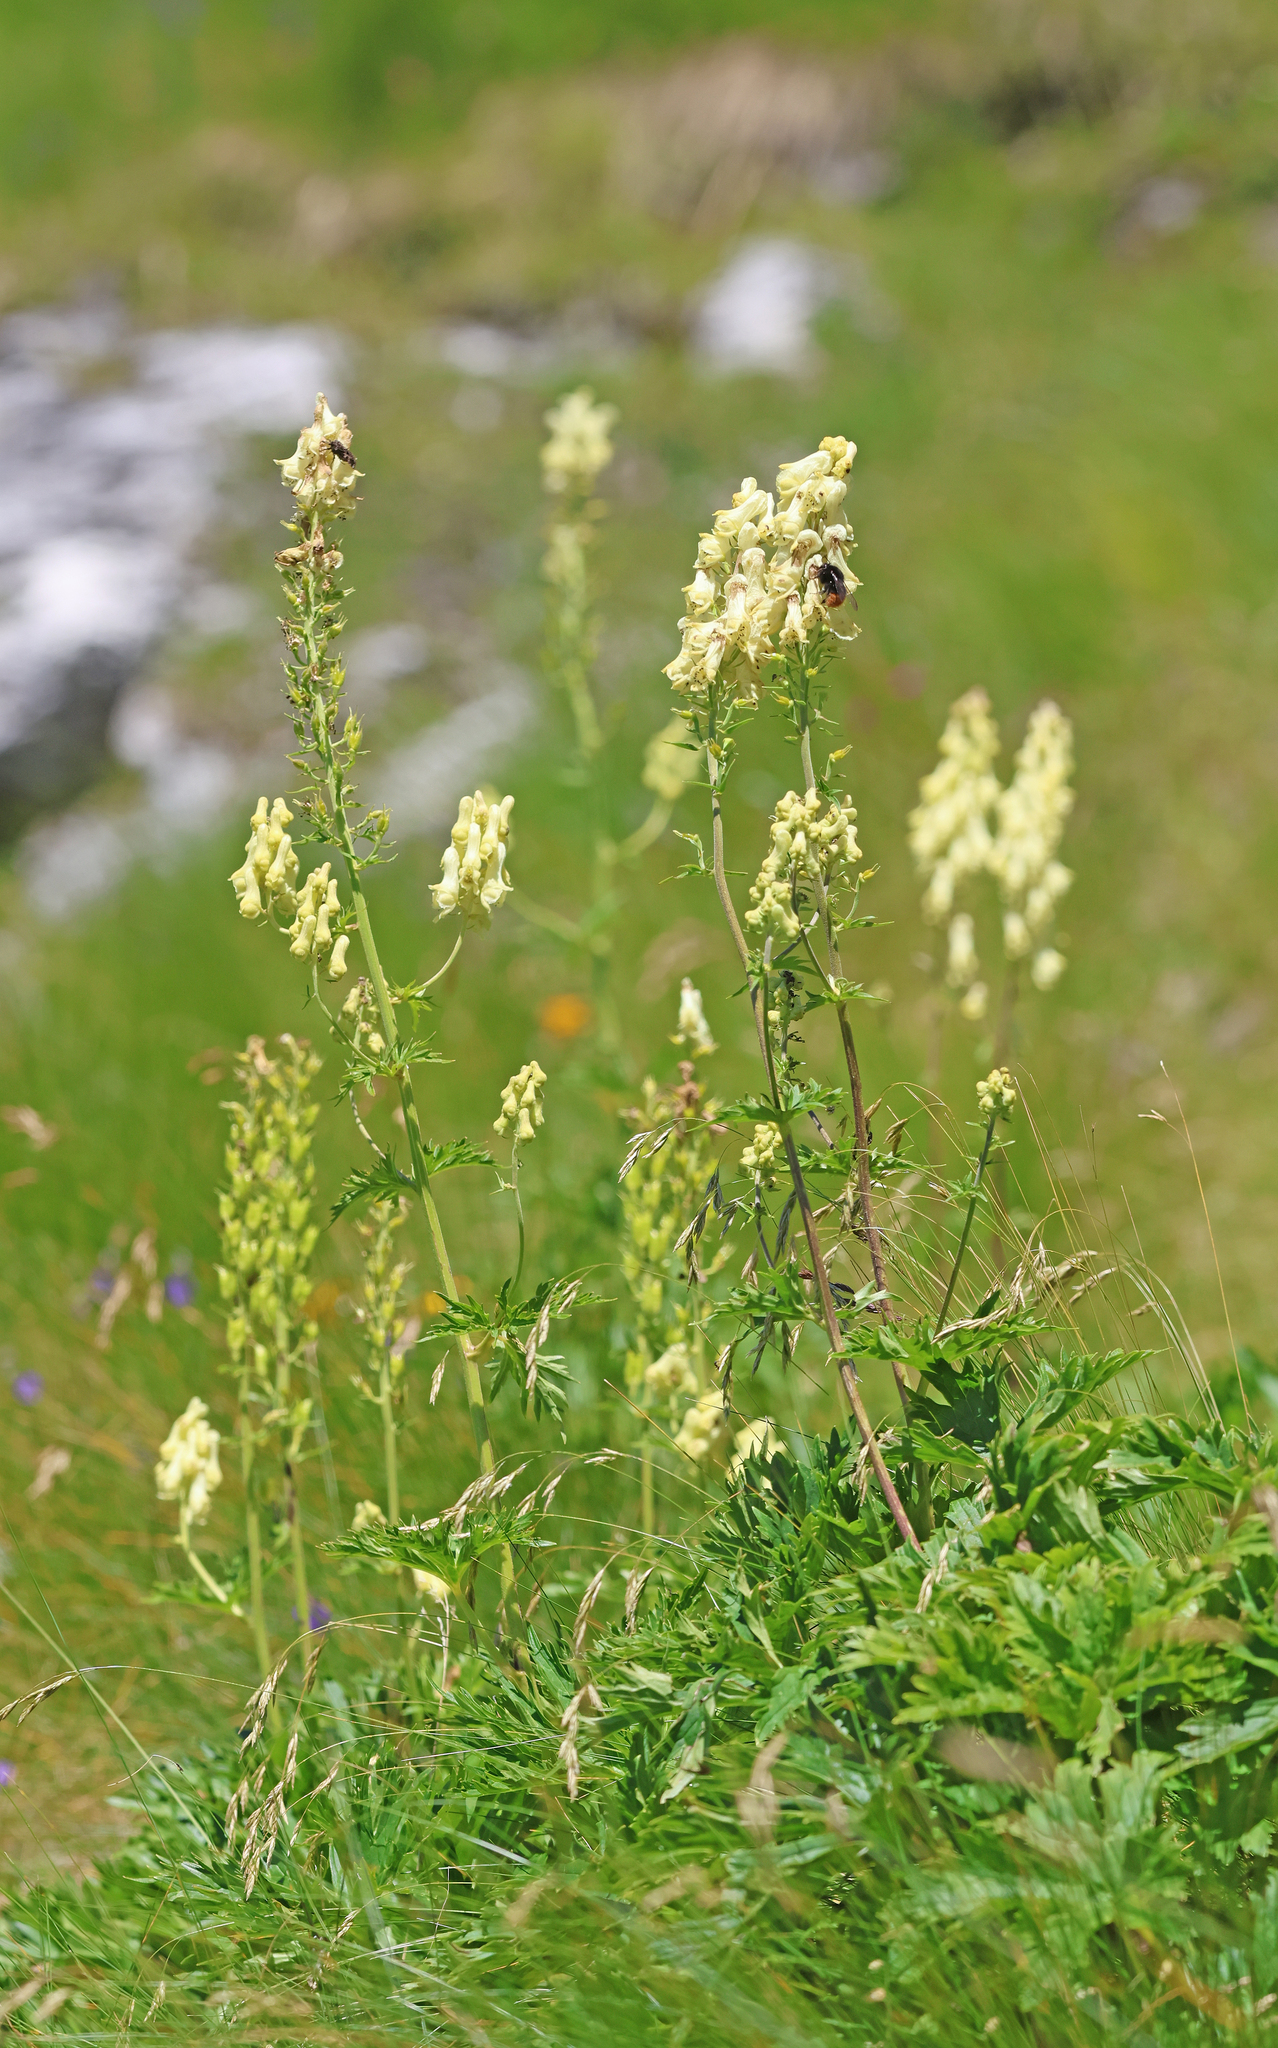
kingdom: Plantae
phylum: Tracheophyta
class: Magnoliopsida
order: Ranunculales
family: Ranunculaceae
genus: Aconitum
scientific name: Aconitum lamarckii
